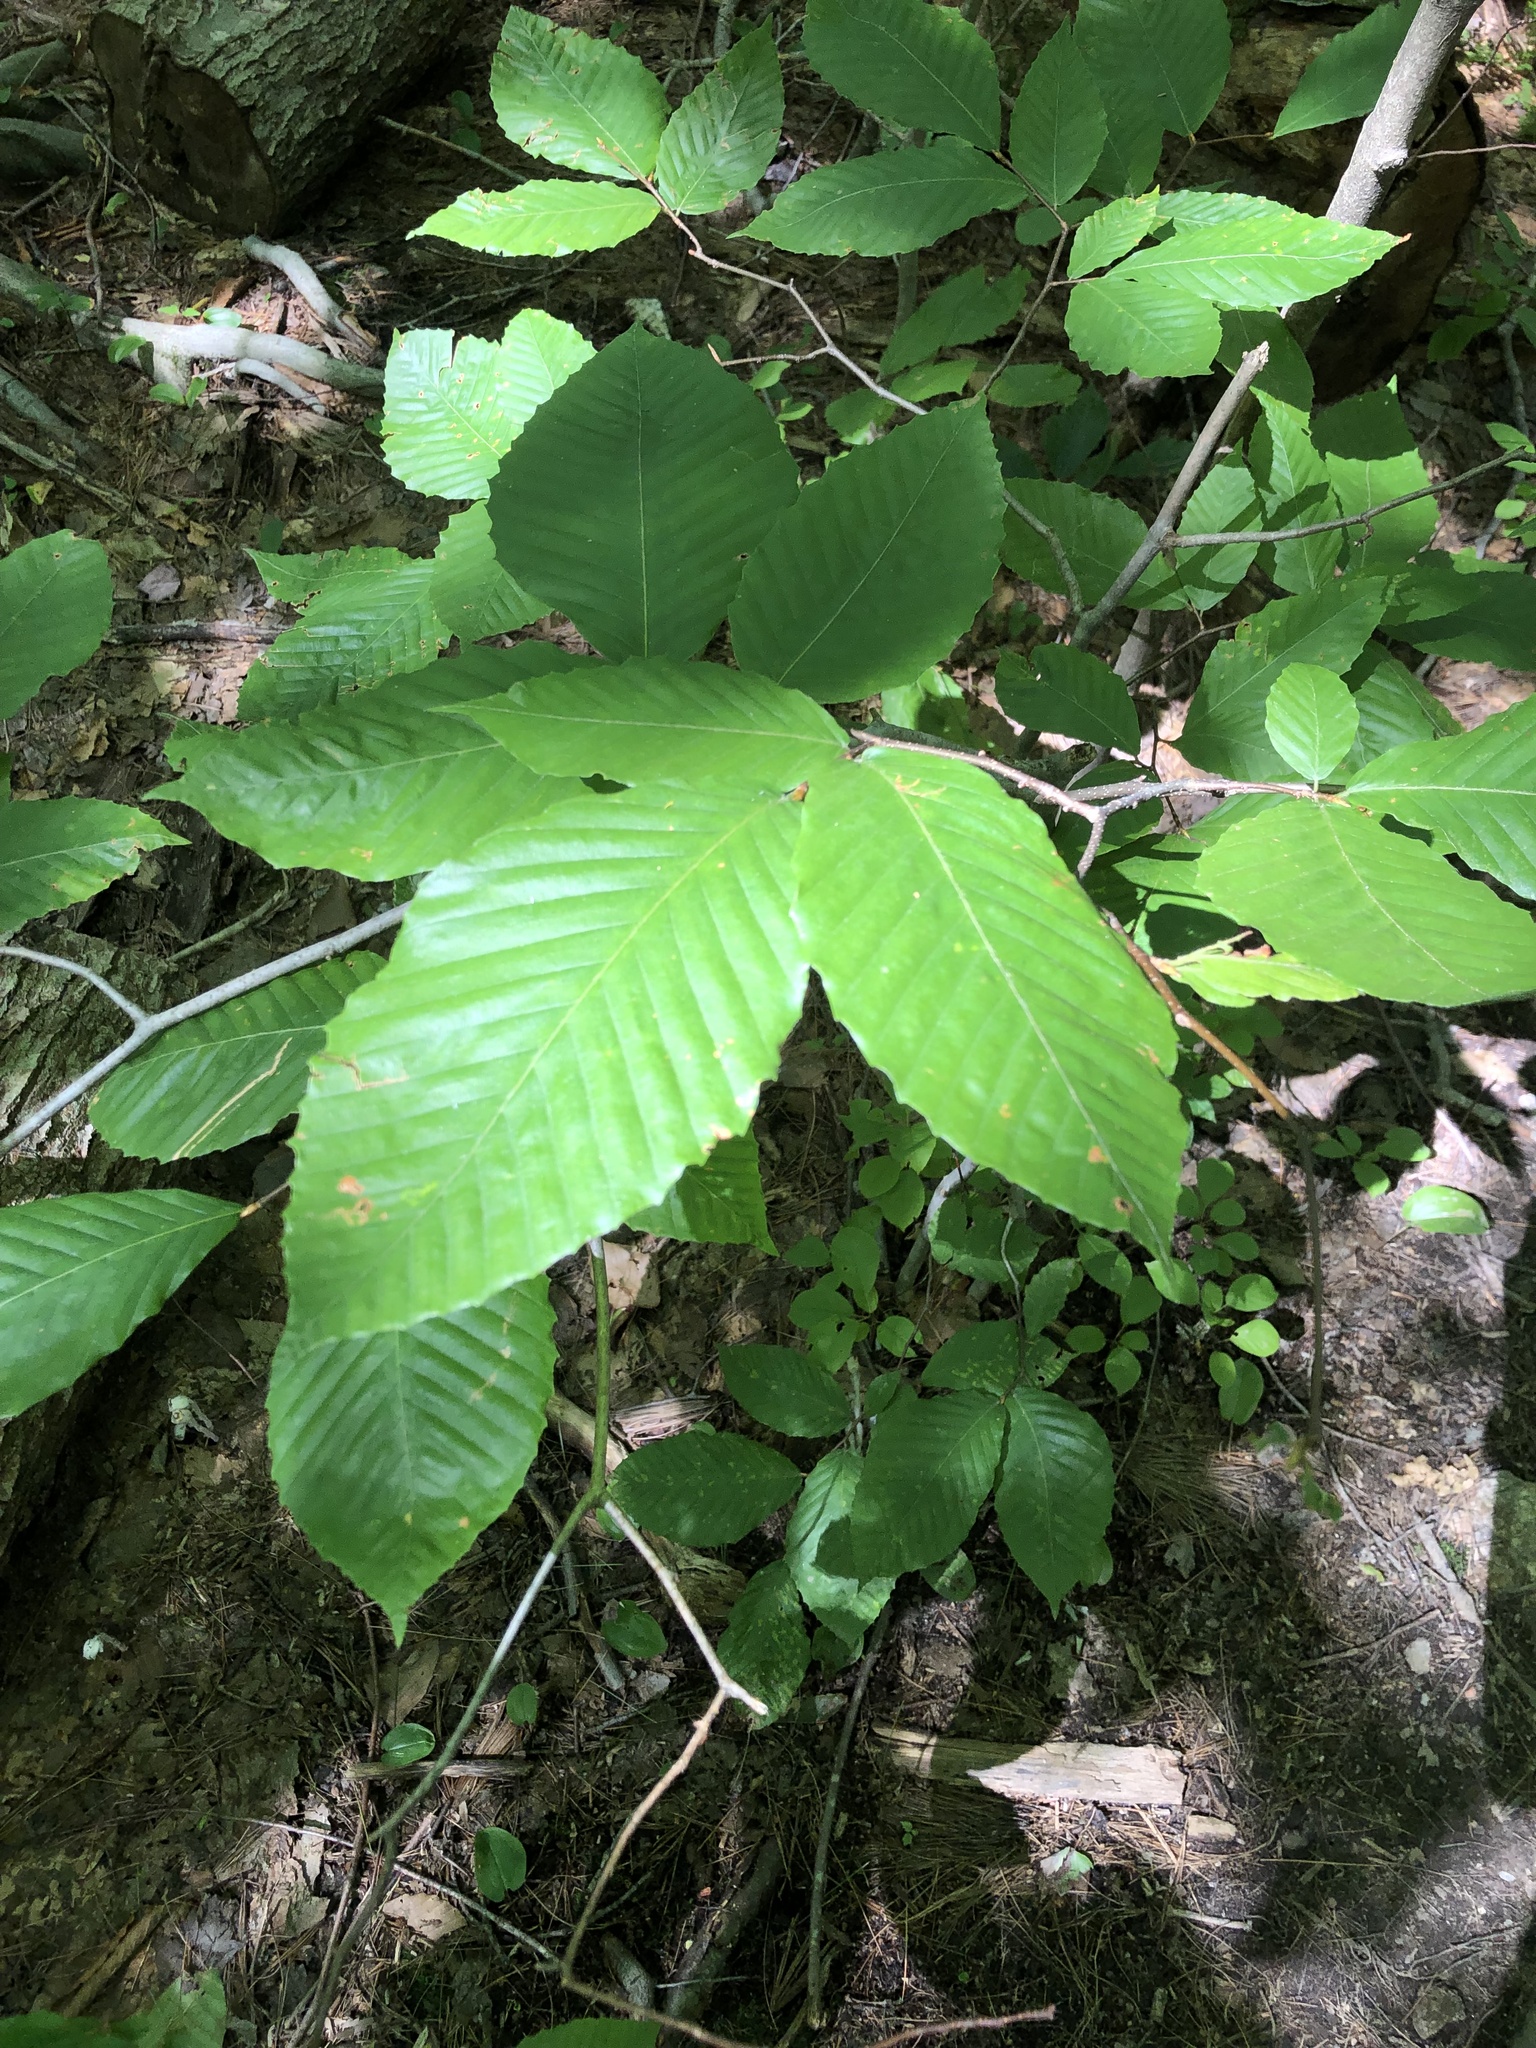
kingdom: Plantae
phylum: Tracheophyta
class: Magnoliopsida
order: Fagales
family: Fagaceae
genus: Fagus
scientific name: Fagus grandifolia
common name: American beech
